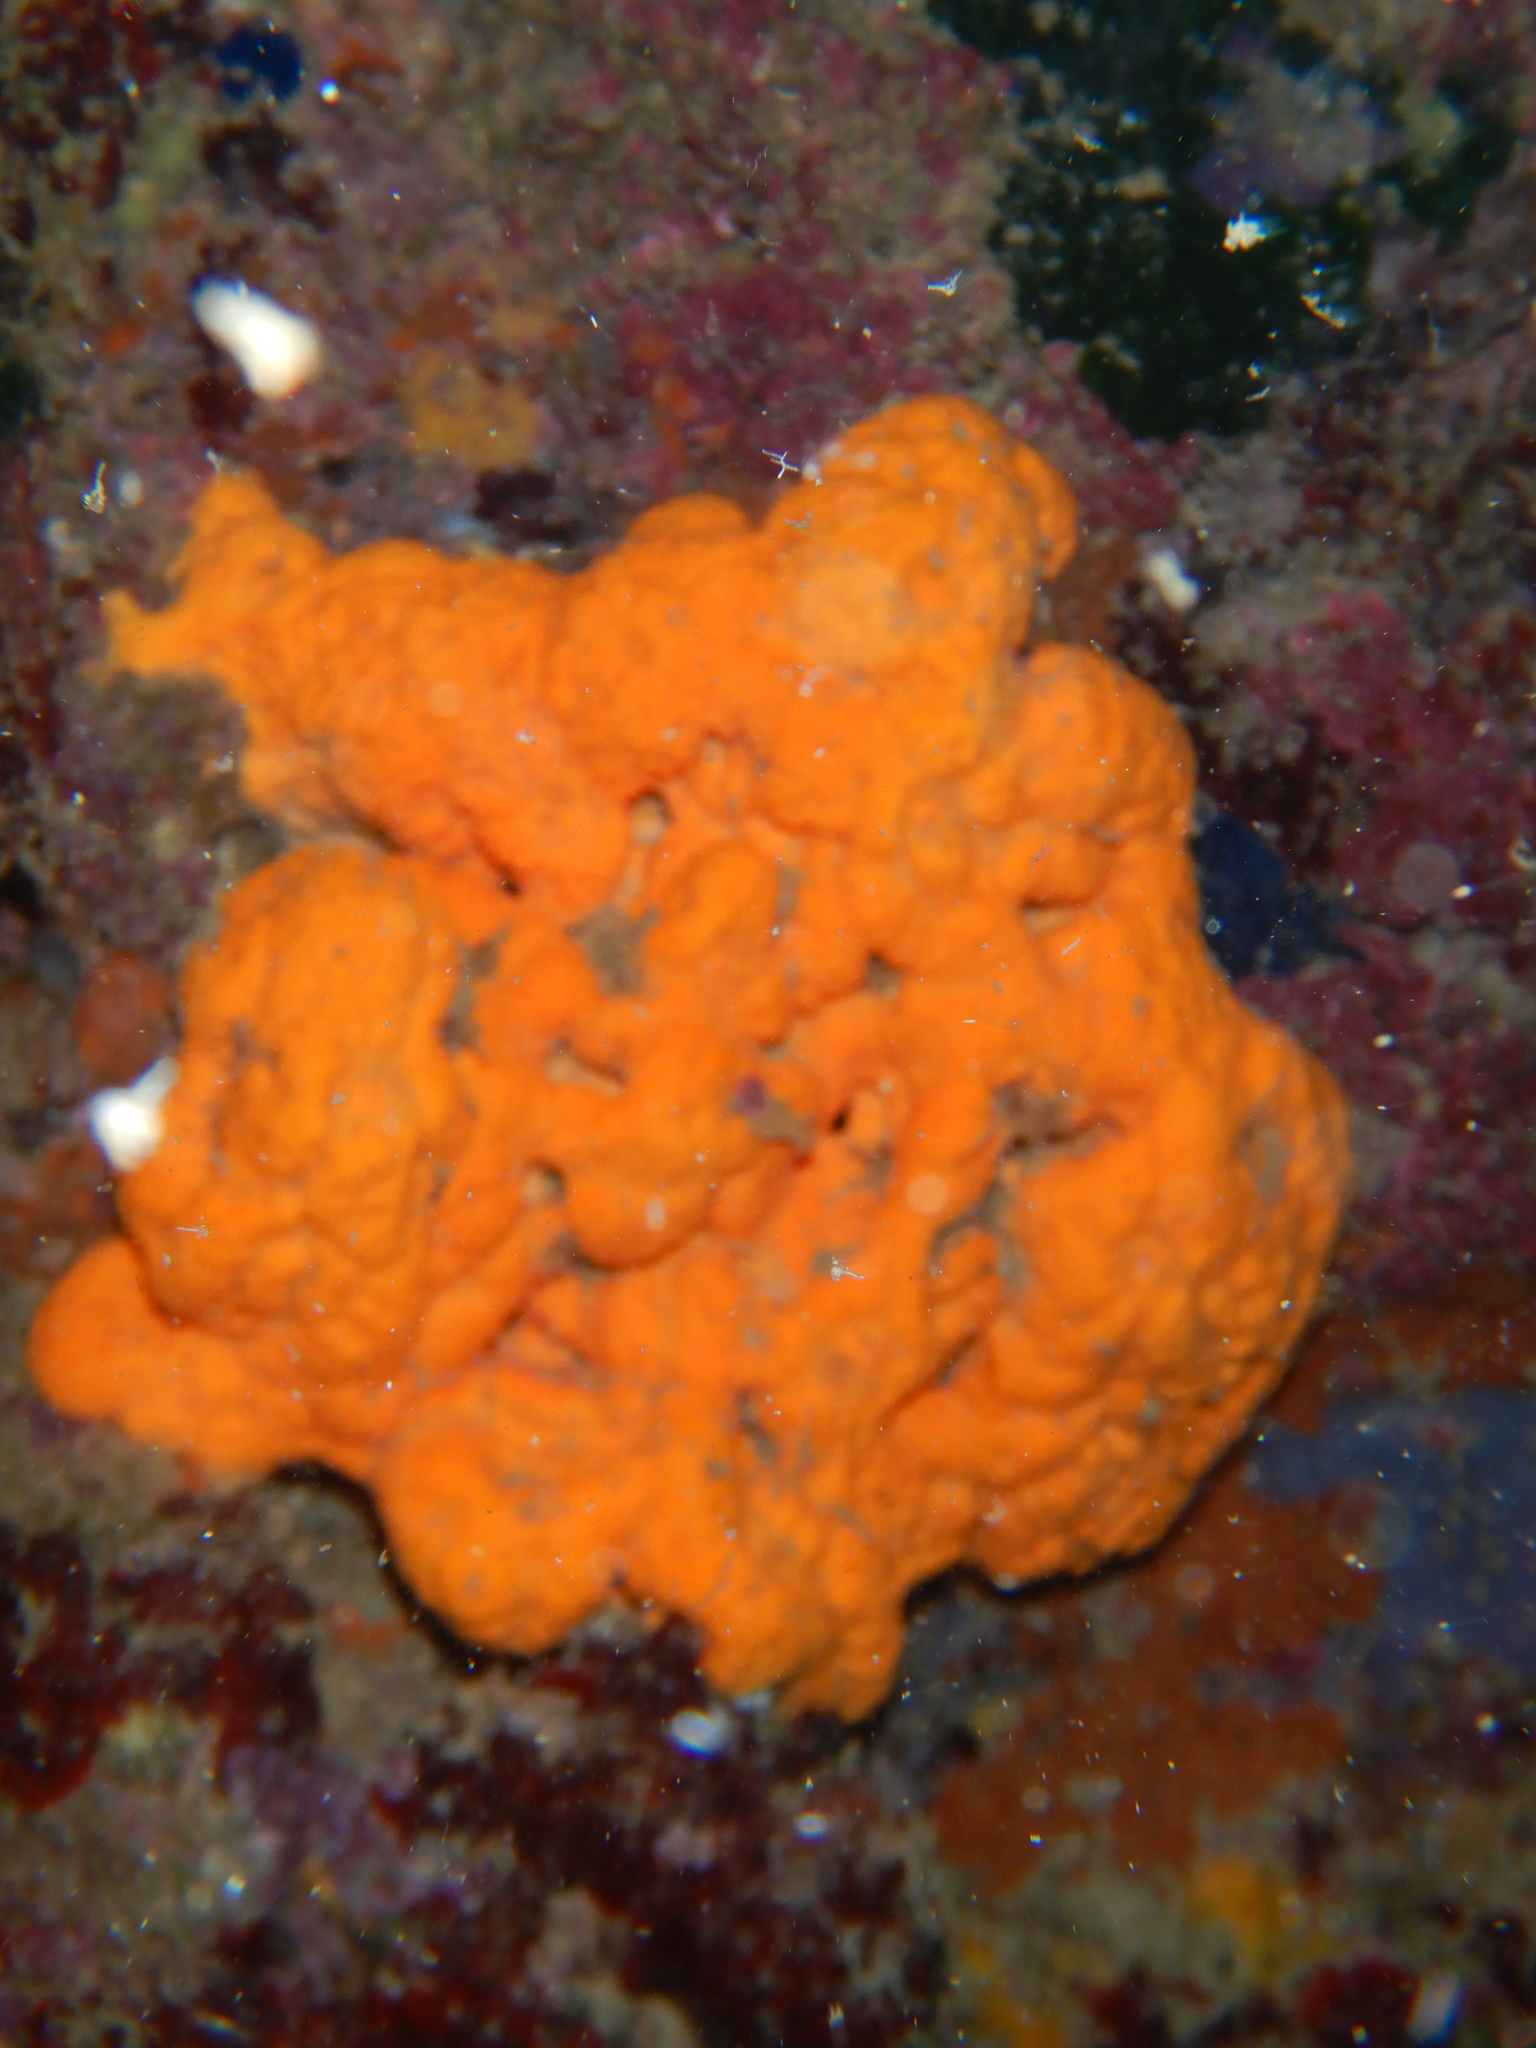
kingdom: Animalia
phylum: Porifera
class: Demospongiae
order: Agelasida
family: Agelasidae
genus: Agelas
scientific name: Agelas oroides
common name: Maltese sponge
